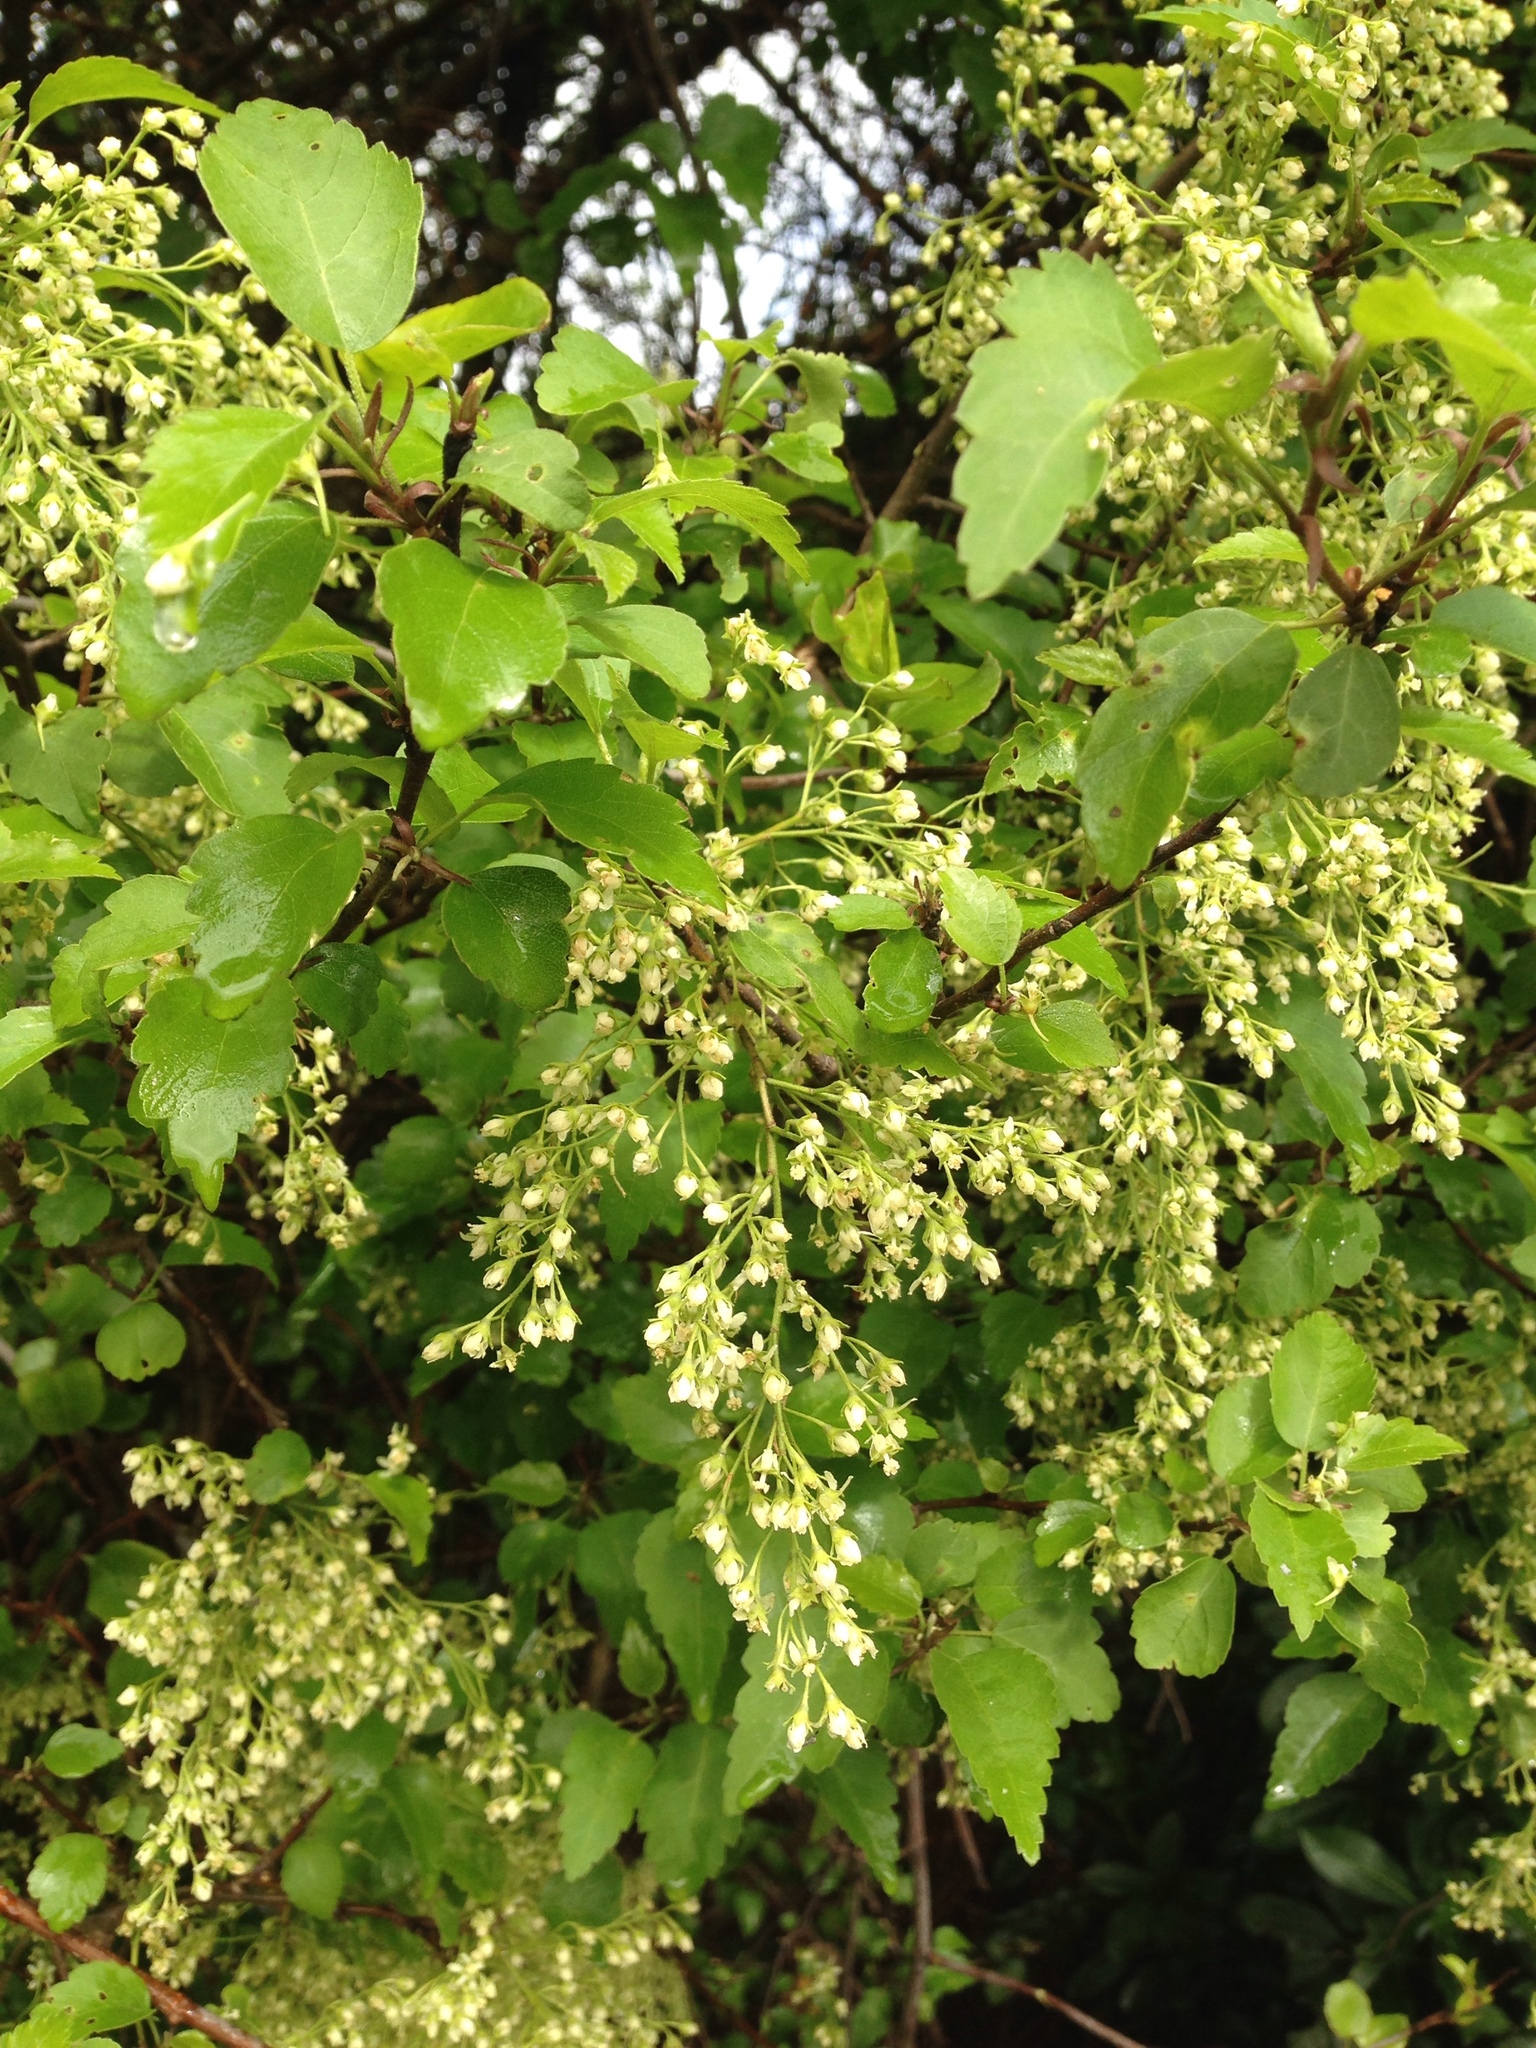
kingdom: Plantae
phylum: Tracheophyta
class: Magnoliopsida
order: Malvales
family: Malvaceae
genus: Plagianthus
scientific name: Plagianthus regius
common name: Manatu
